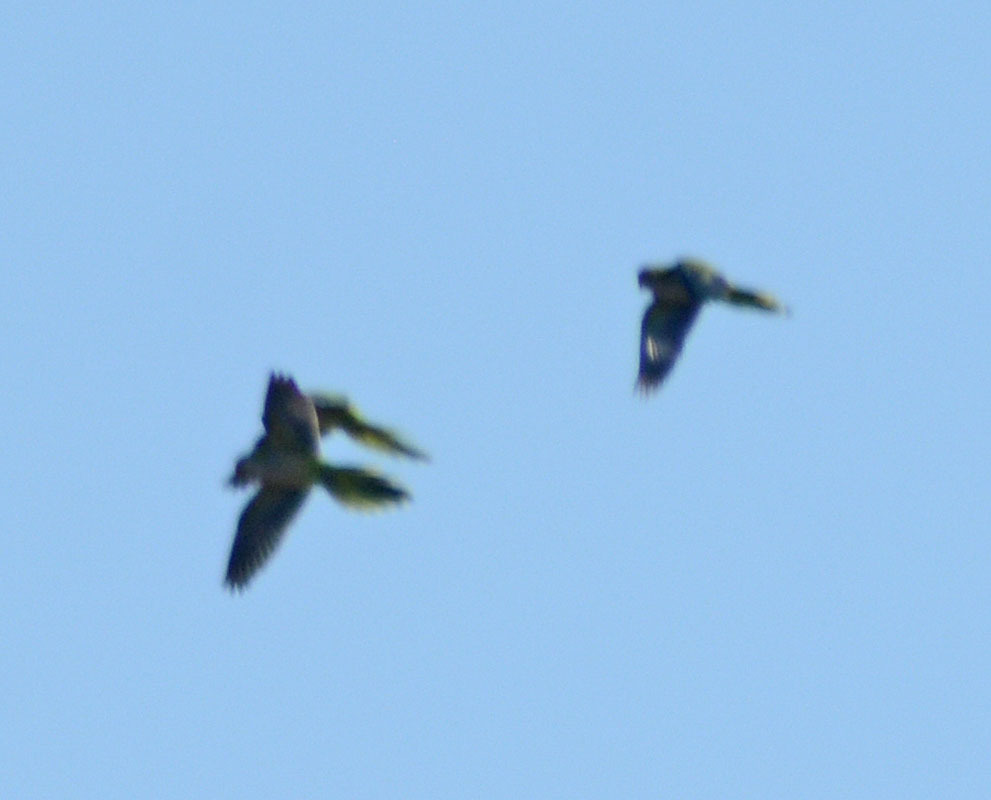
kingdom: Animalia
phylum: Chordata
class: Aves
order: Psittaciformes
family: Psittacidae
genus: Myiopsitta
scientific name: Myiopsitta monachus
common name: Monk parakeet
